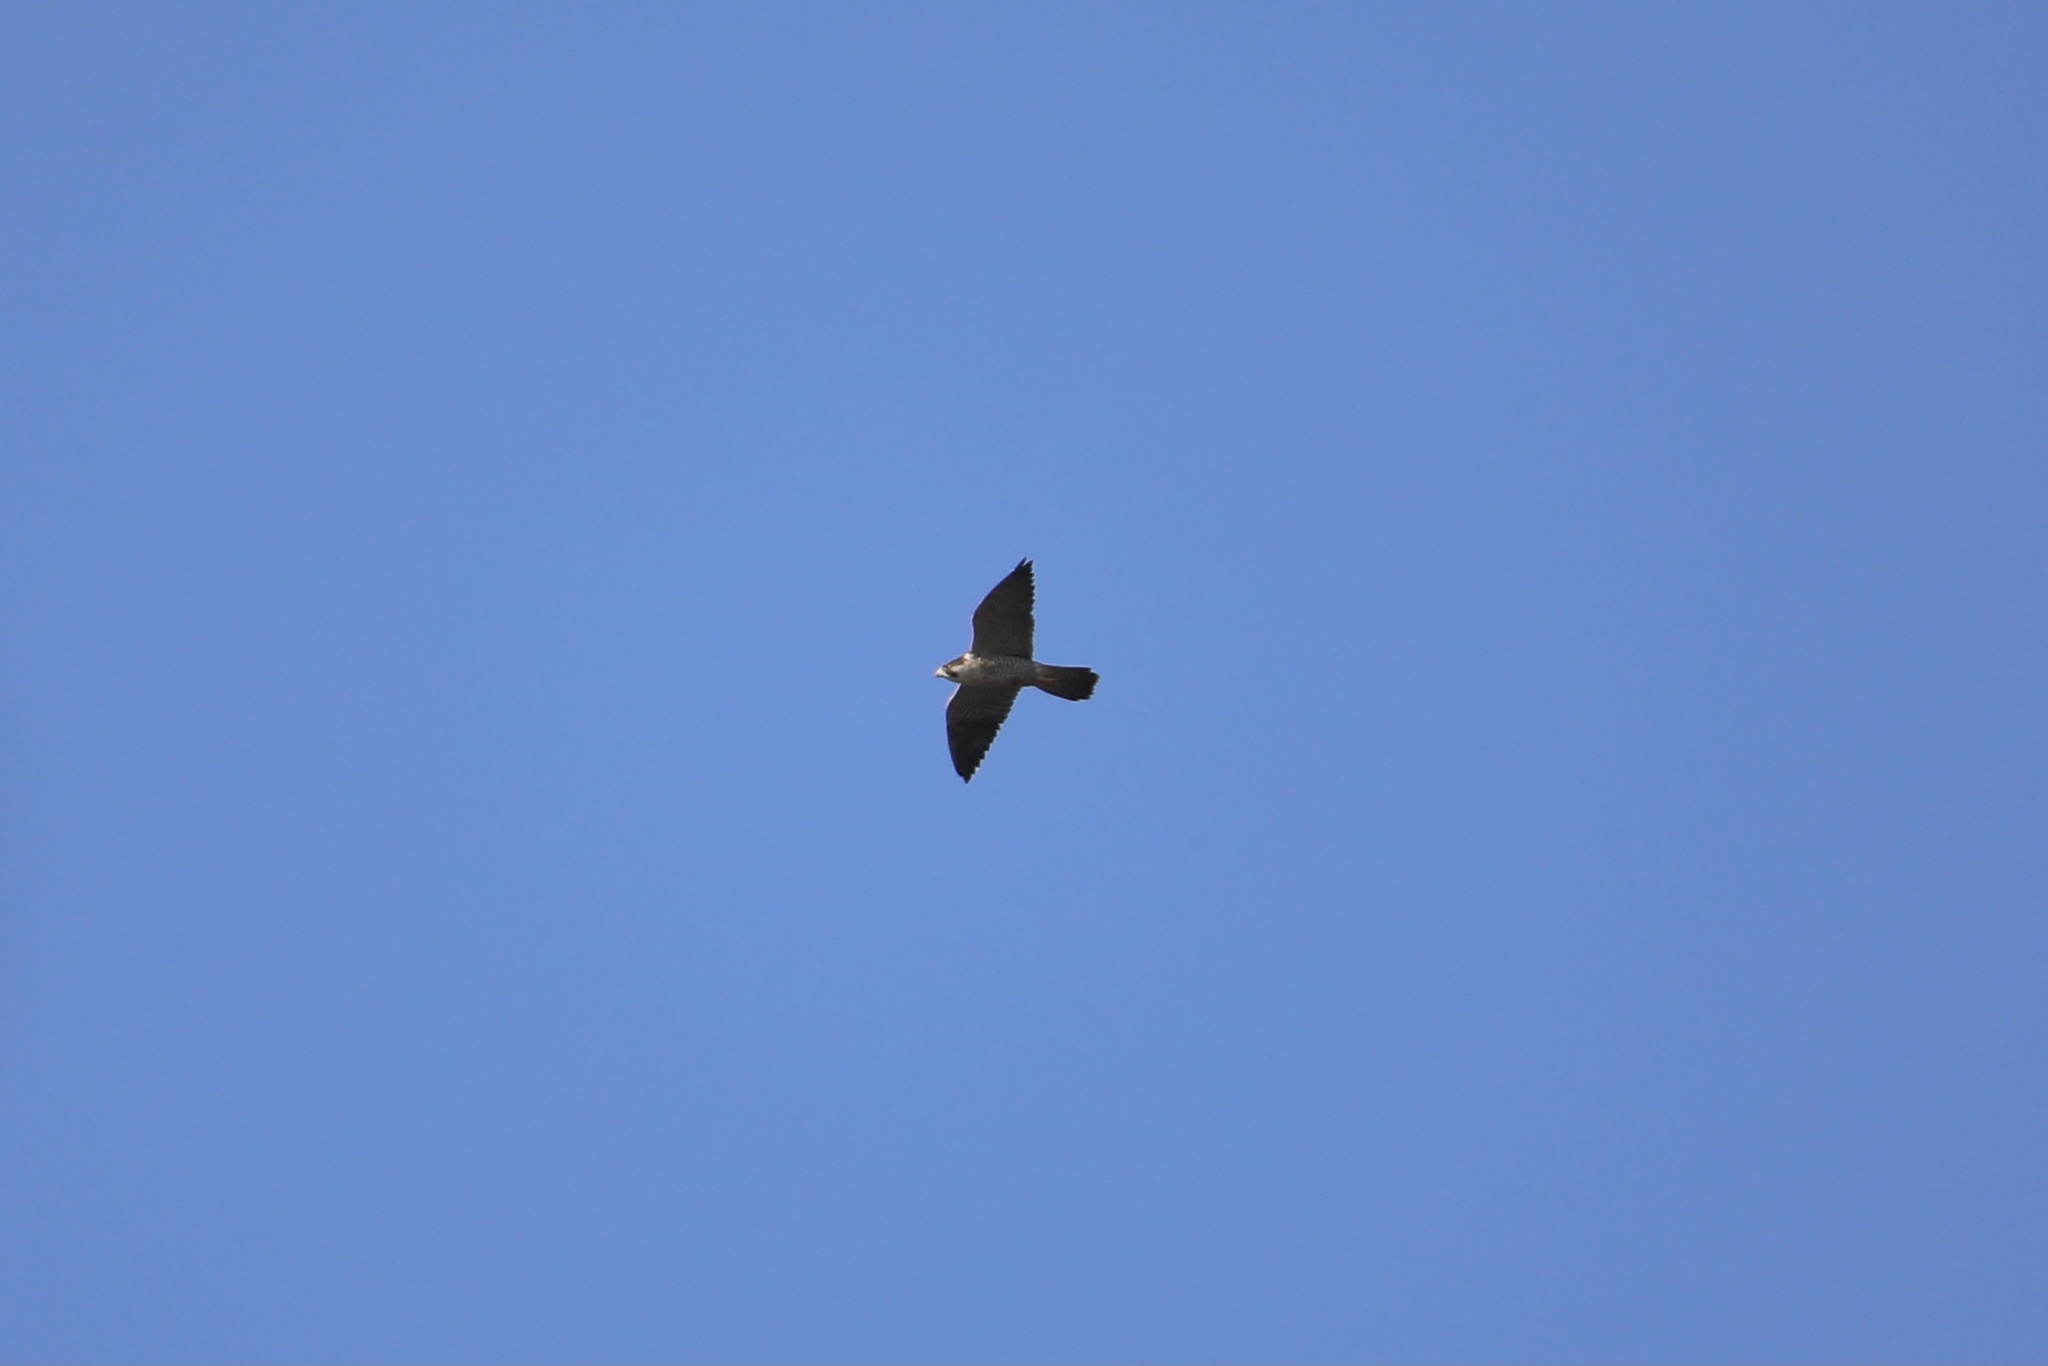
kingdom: Animalia
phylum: Chordata
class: Aves
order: Falconiformes
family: Falconidae
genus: Falco
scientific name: Falco peregrinus
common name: Peregrine falcon
